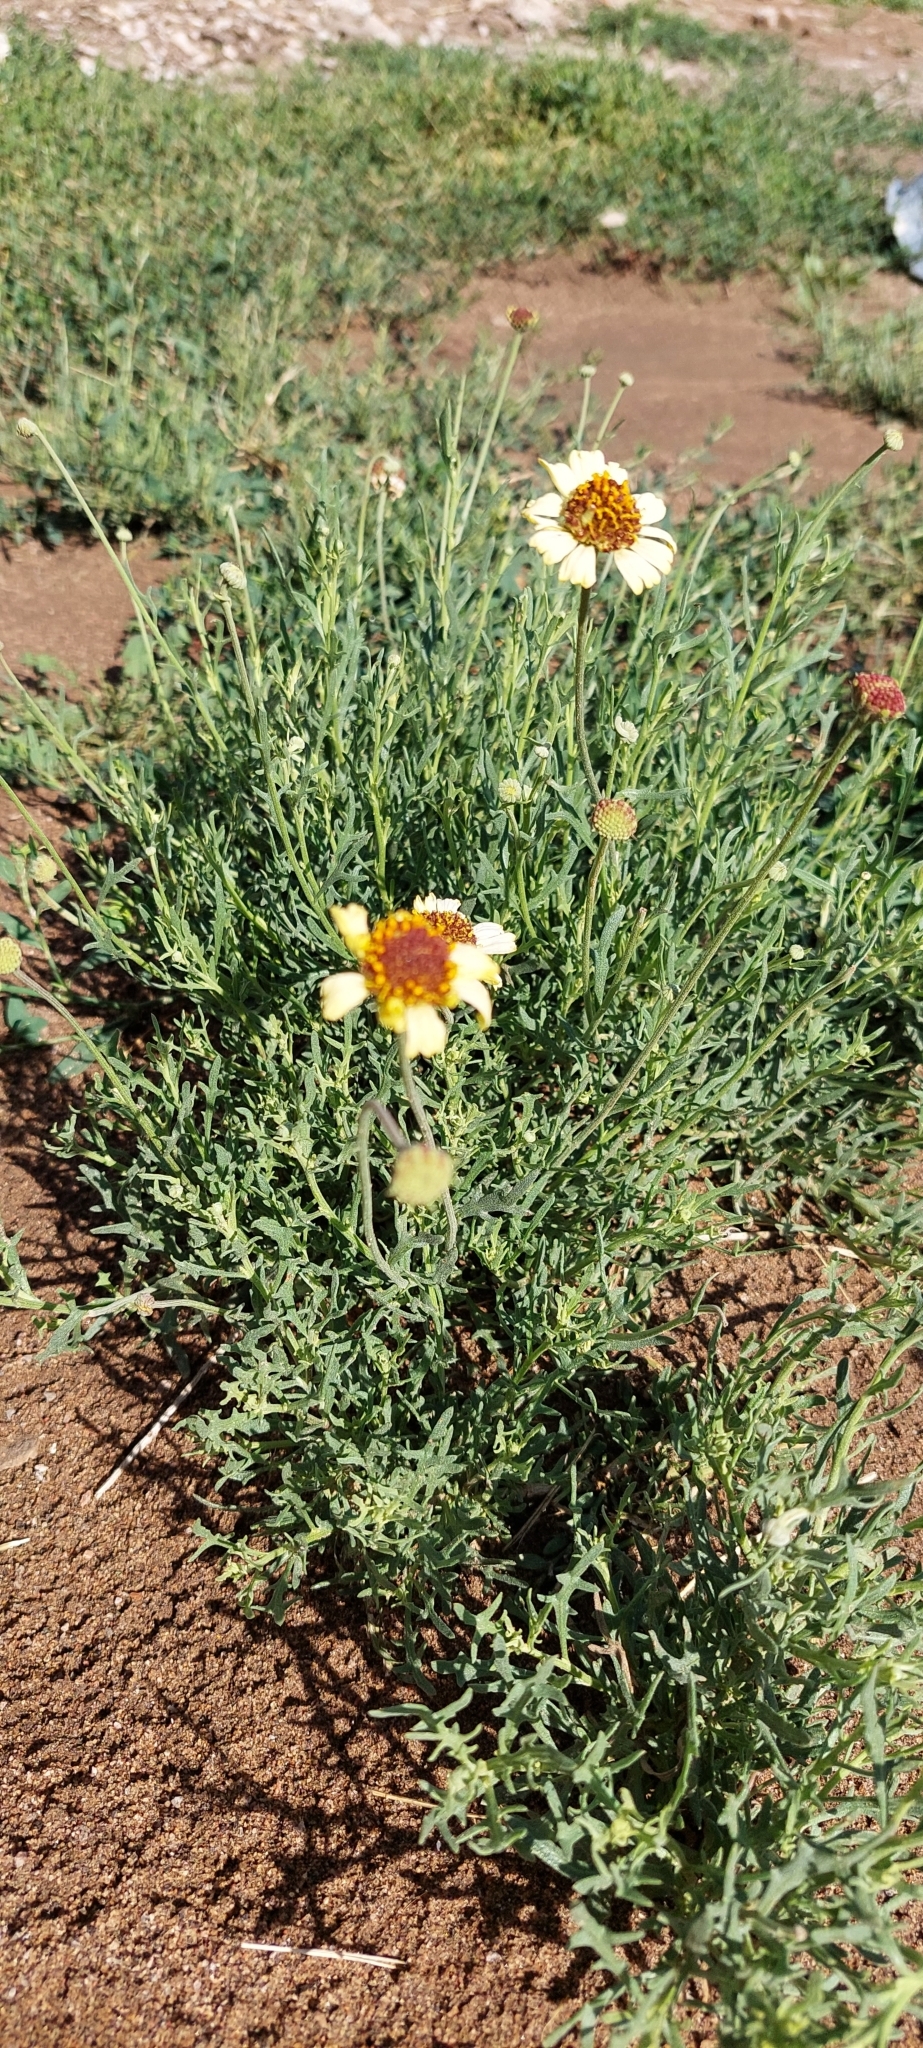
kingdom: Plantae
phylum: Tracheophyta
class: Magnoliopsida
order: Asterales
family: Asteraceae
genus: Helenium
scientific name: Helenium uniflorum
